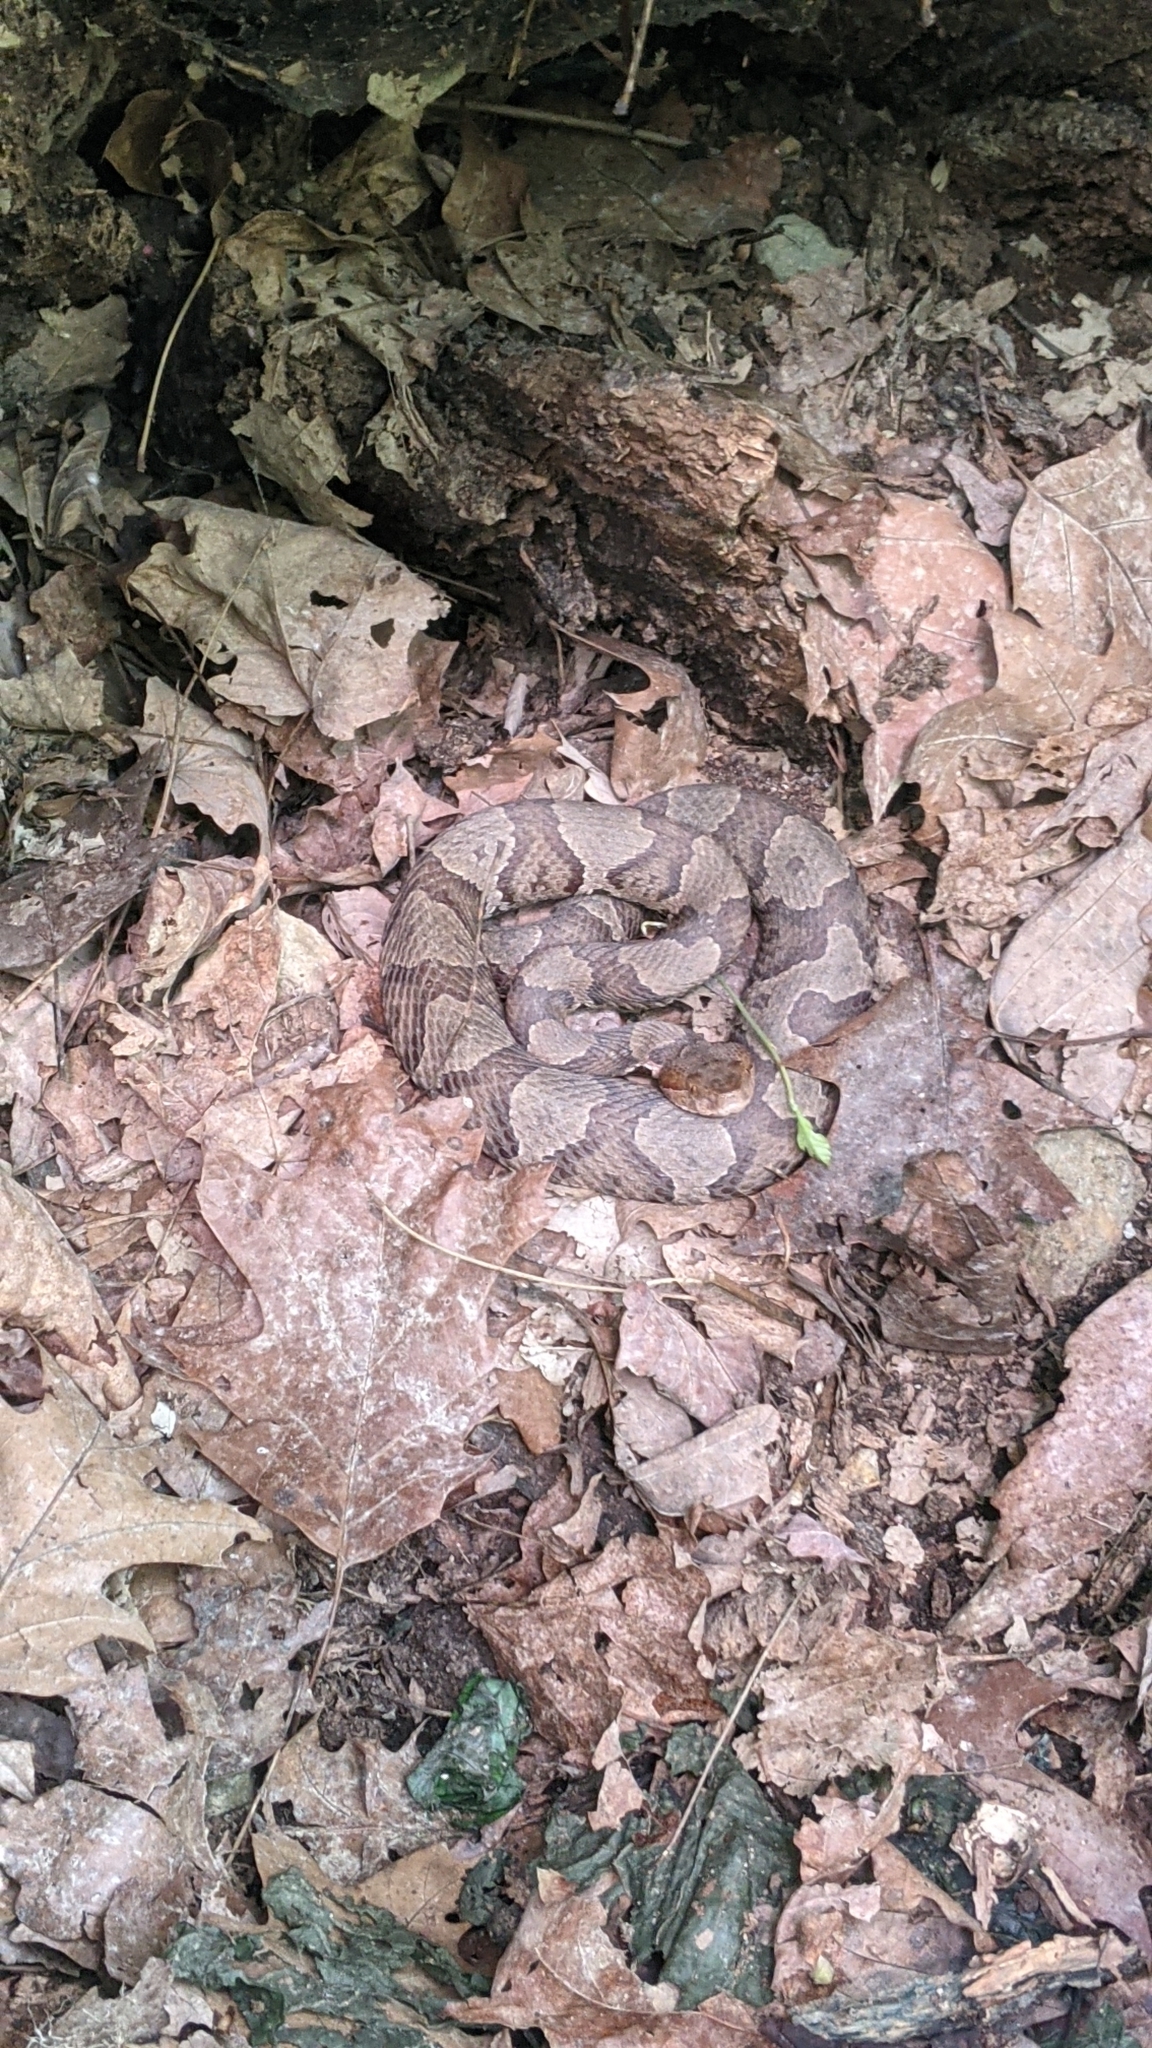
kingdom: Animalia
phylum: Chordata
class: Squamata
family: Viperidae
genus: Agkistrodon
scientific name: Agkistrodon contortrix
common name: Northern copperhead
